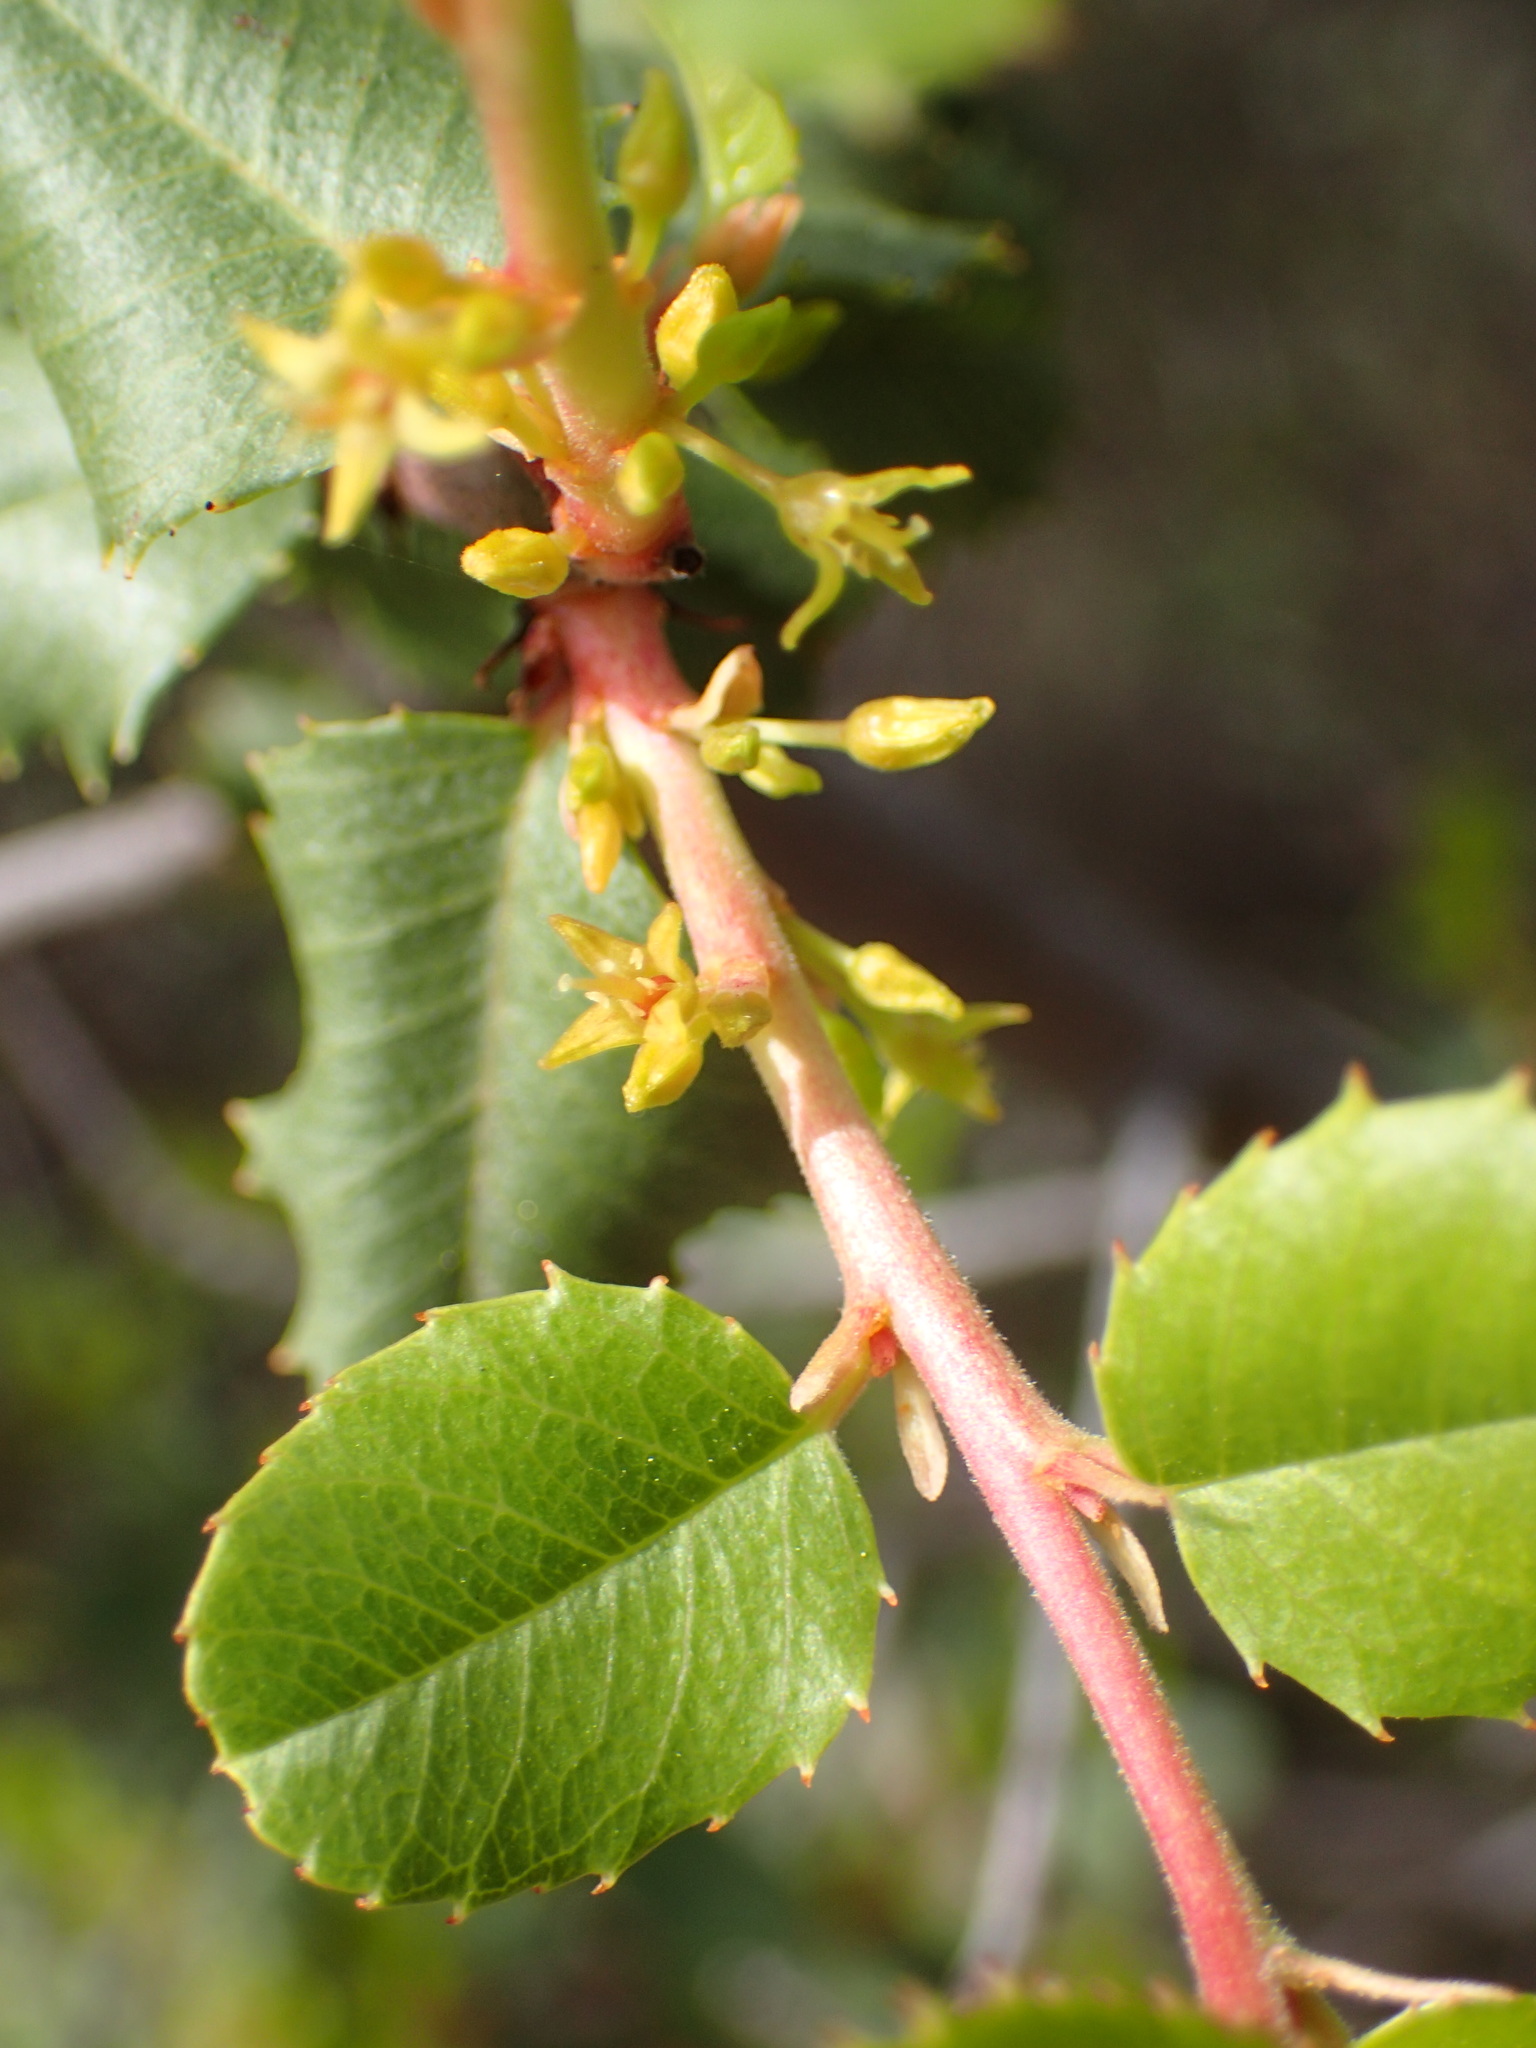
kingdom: Plantae
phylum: Tracheophyta
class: Magnoliopsida
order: Rosales
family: Rhamnaceae
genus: Endotropis
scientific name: Endotropis crocea
